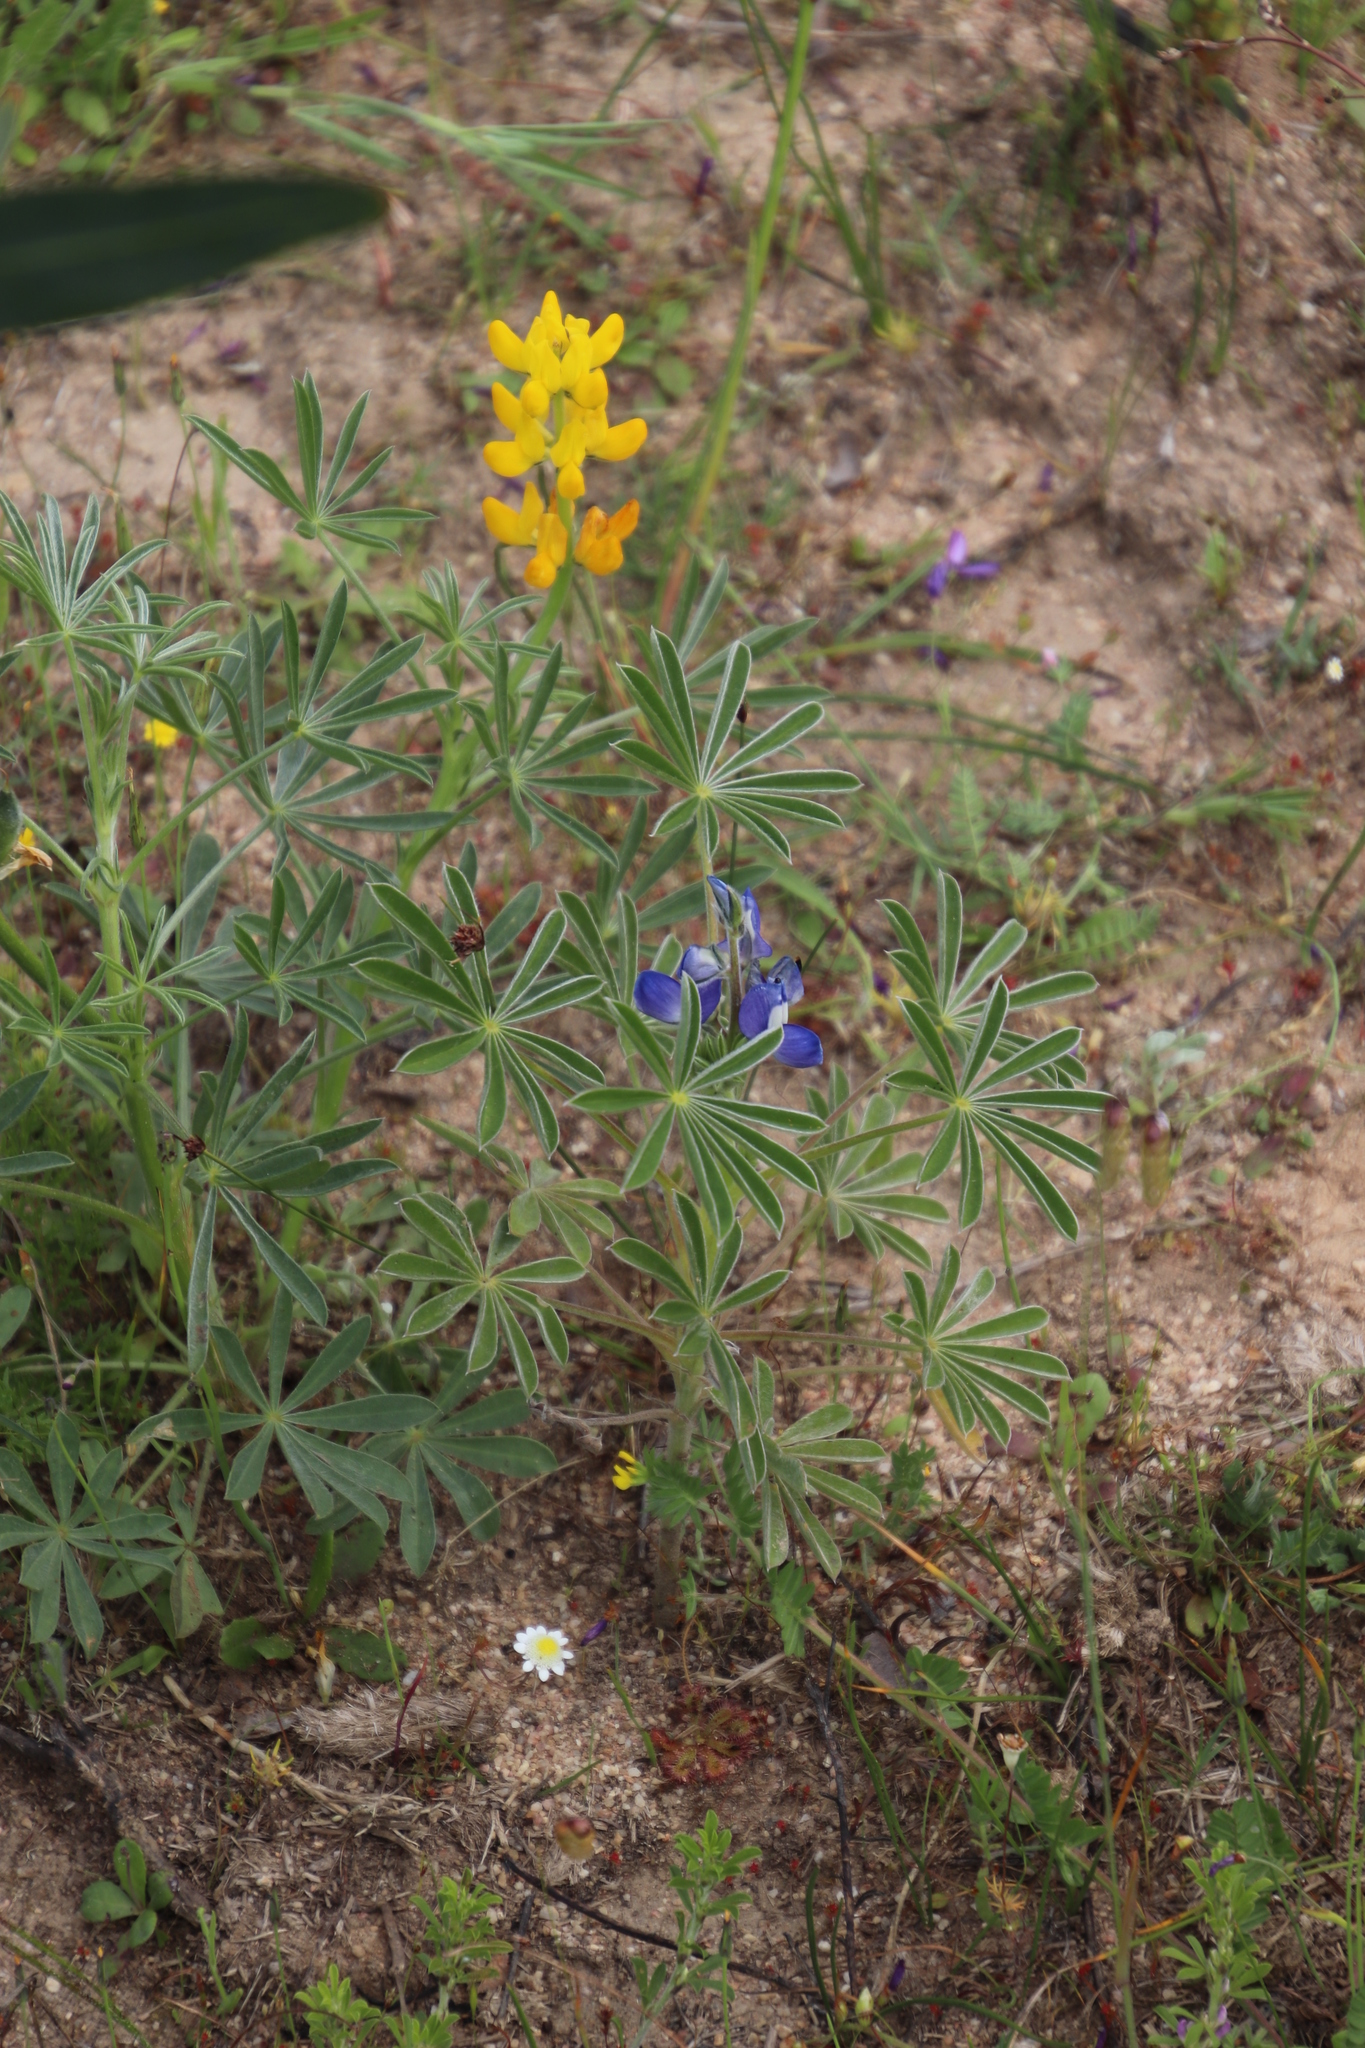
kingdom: Plantae
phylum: Tracheophyta
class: Magnoliopsida
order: Fabales
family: Fabaceae
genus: Lupinus
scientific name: Lupinus luteus
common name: European yellow lupine
